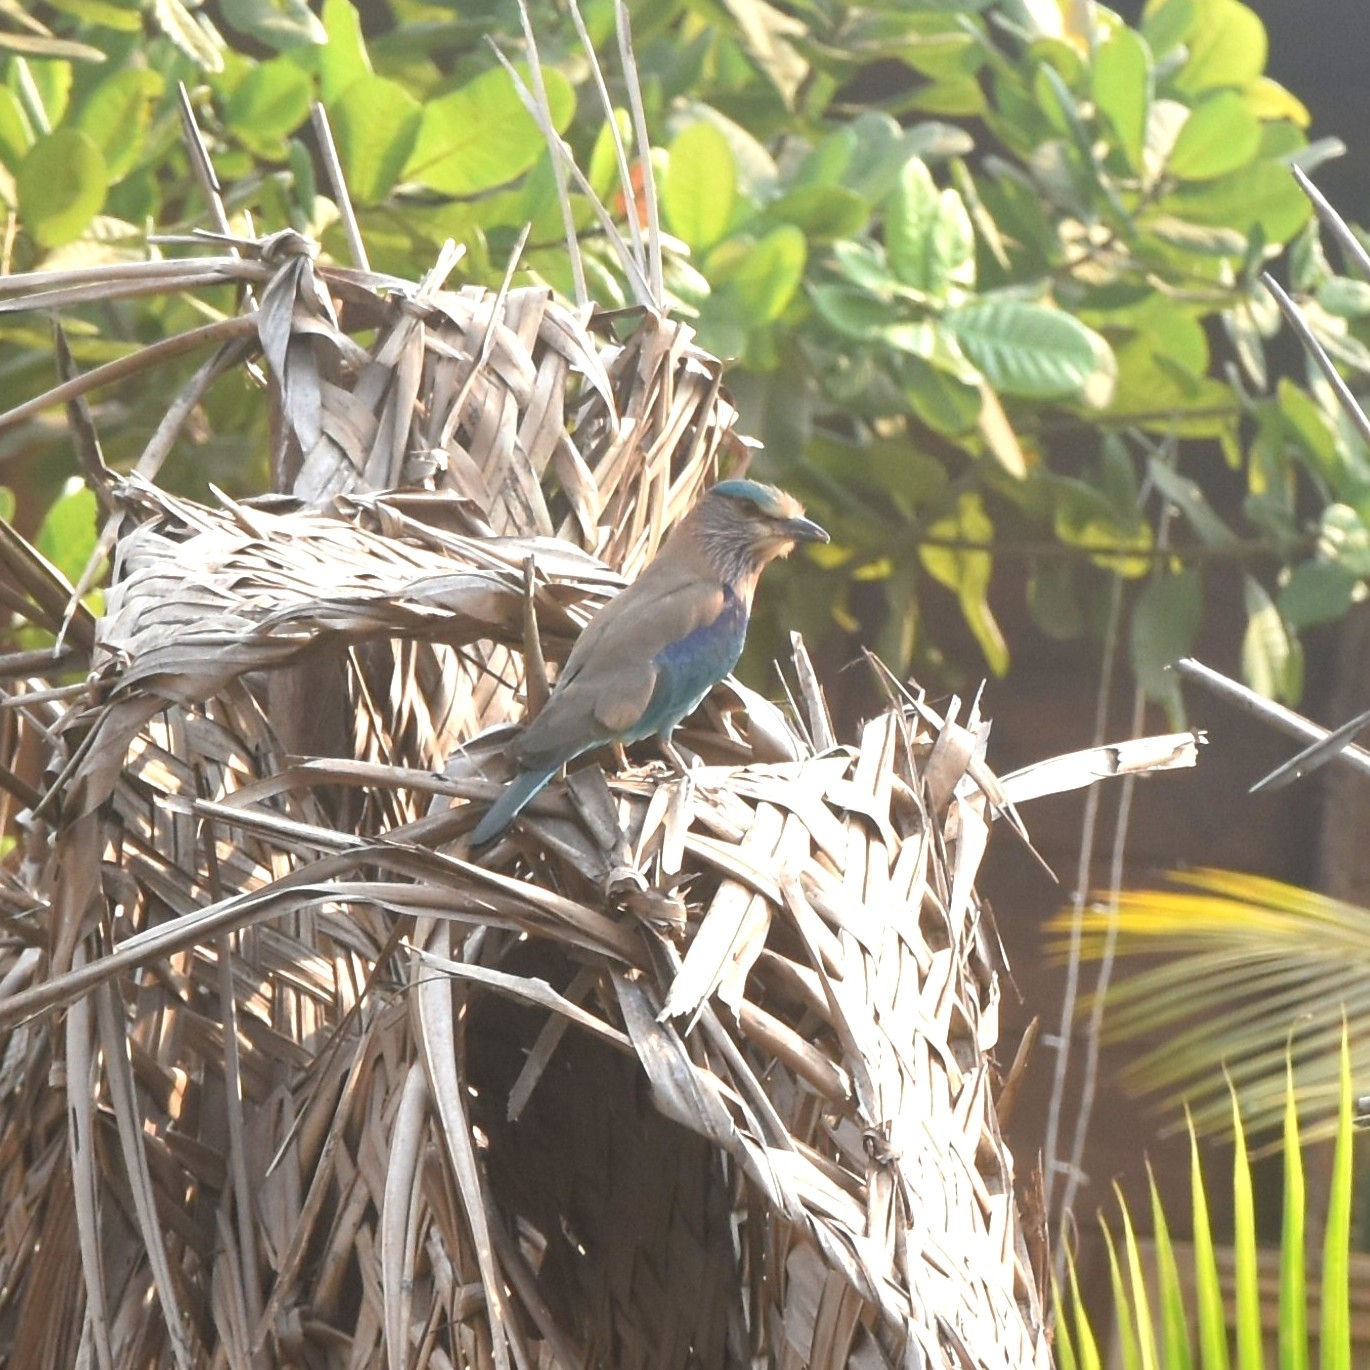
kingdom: Animalia
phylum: Chordata
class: Aves
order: Coraciiformes
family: Coraciidae
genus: Coracias
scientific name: Coracias benghalensis
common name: Indian roller
